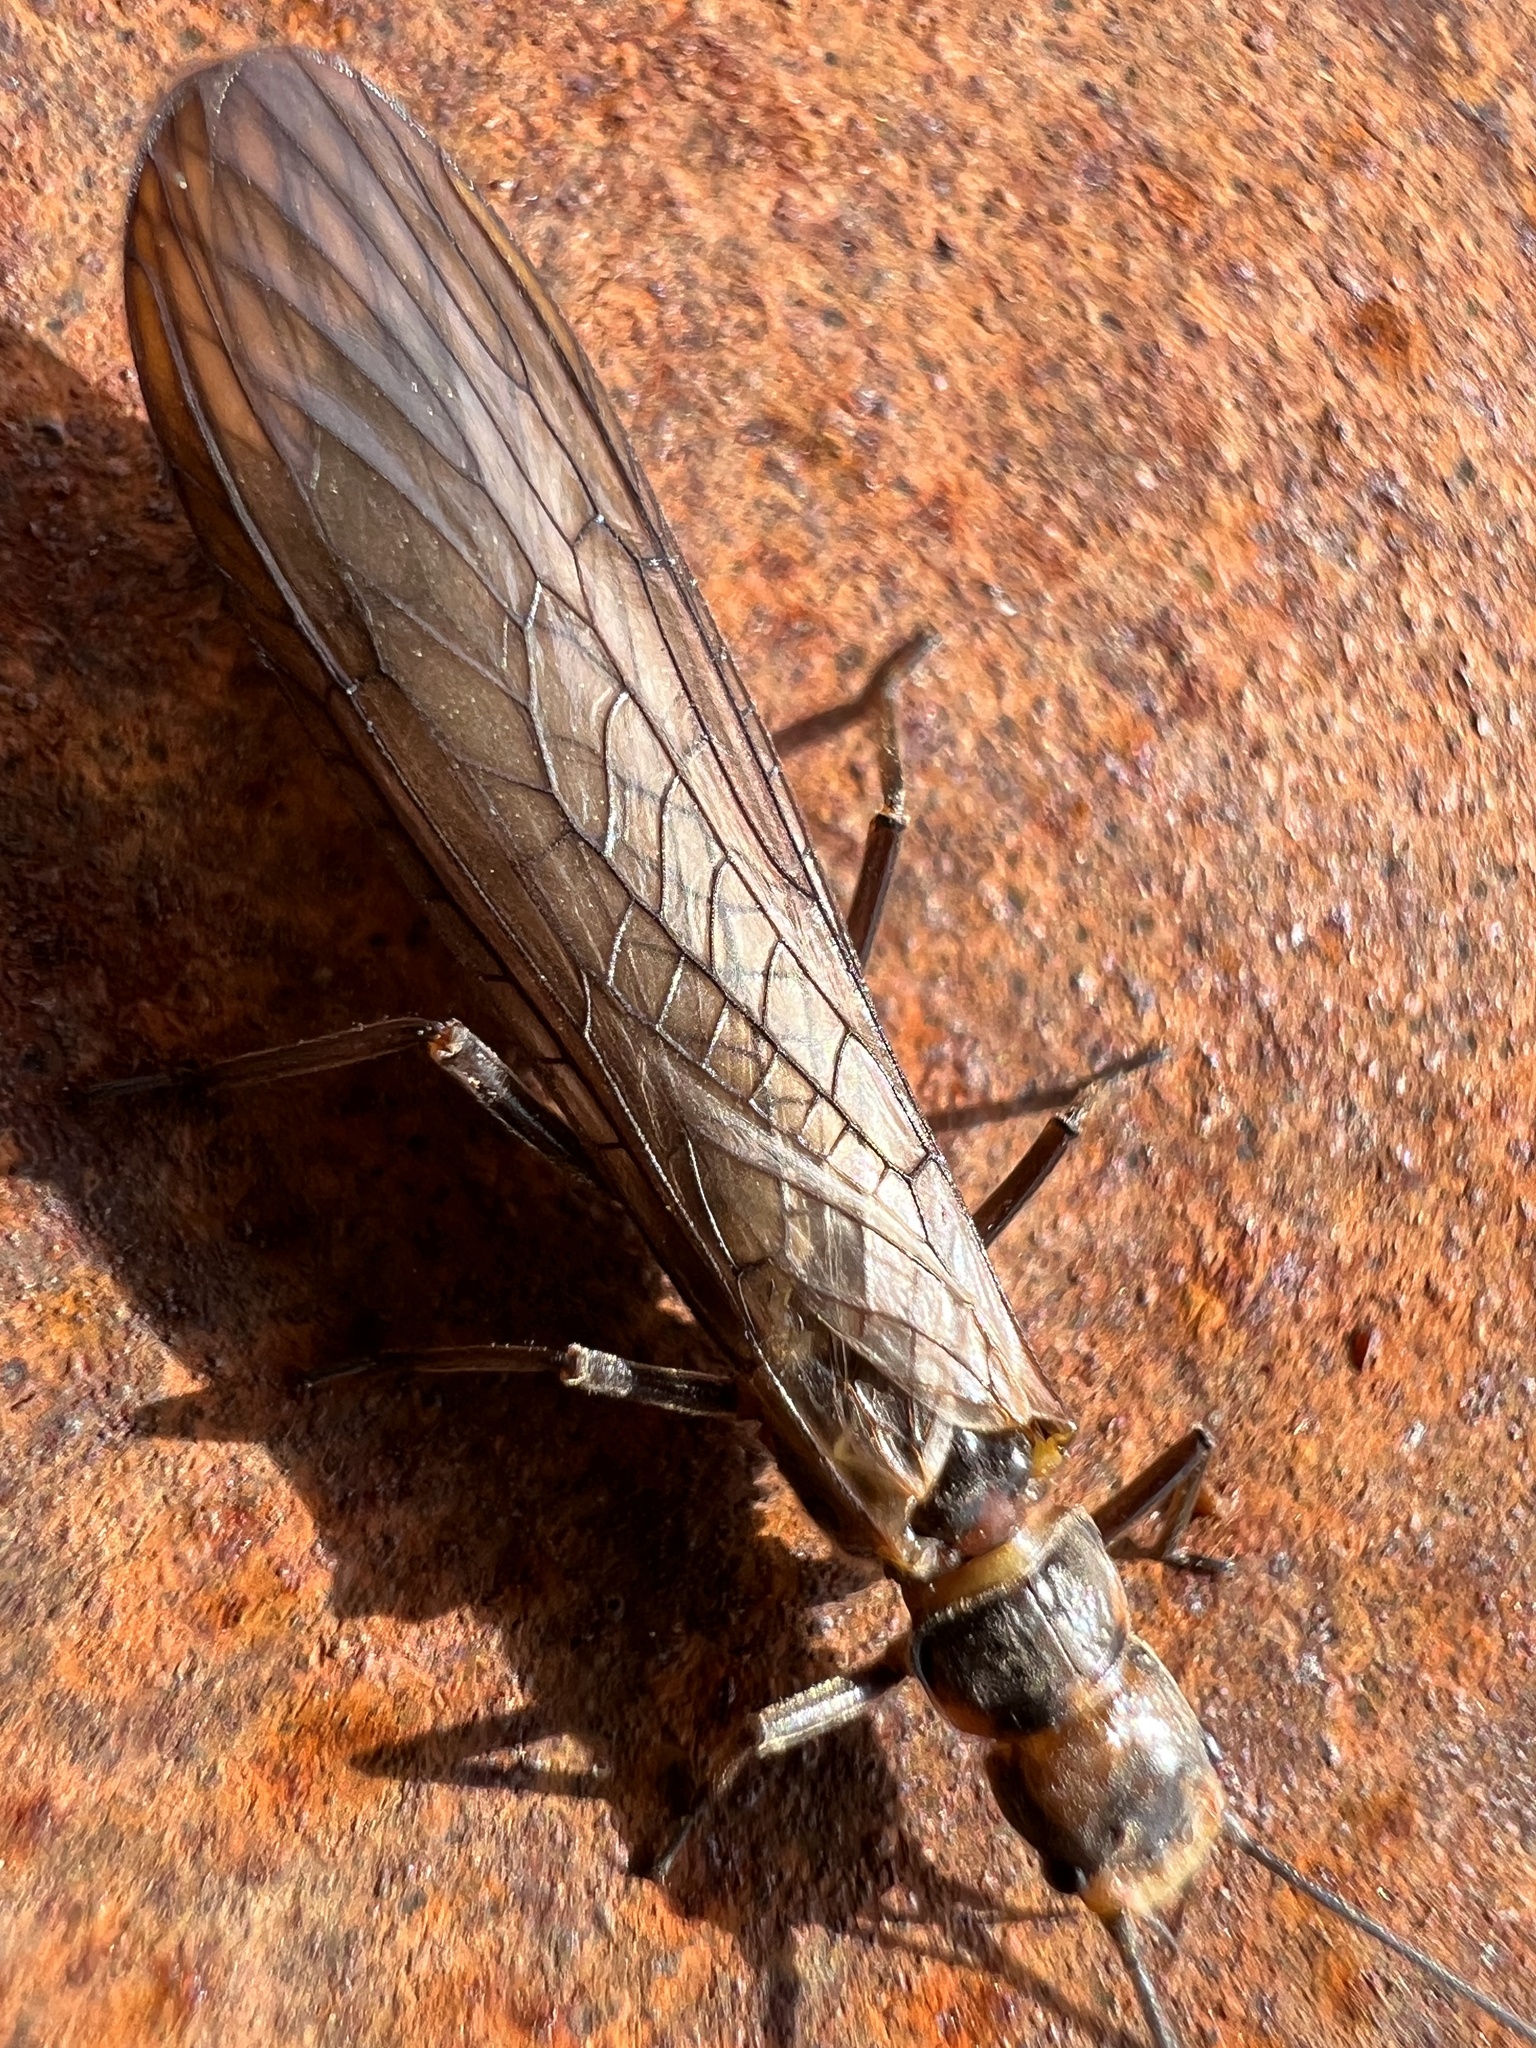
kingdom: Animalia
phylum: Arthropoda
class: Insecta
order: Plecoptera
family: Kathroperlidae
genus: Kathroperla
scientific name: Kathroperla perdita
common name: Longhead sallfly
